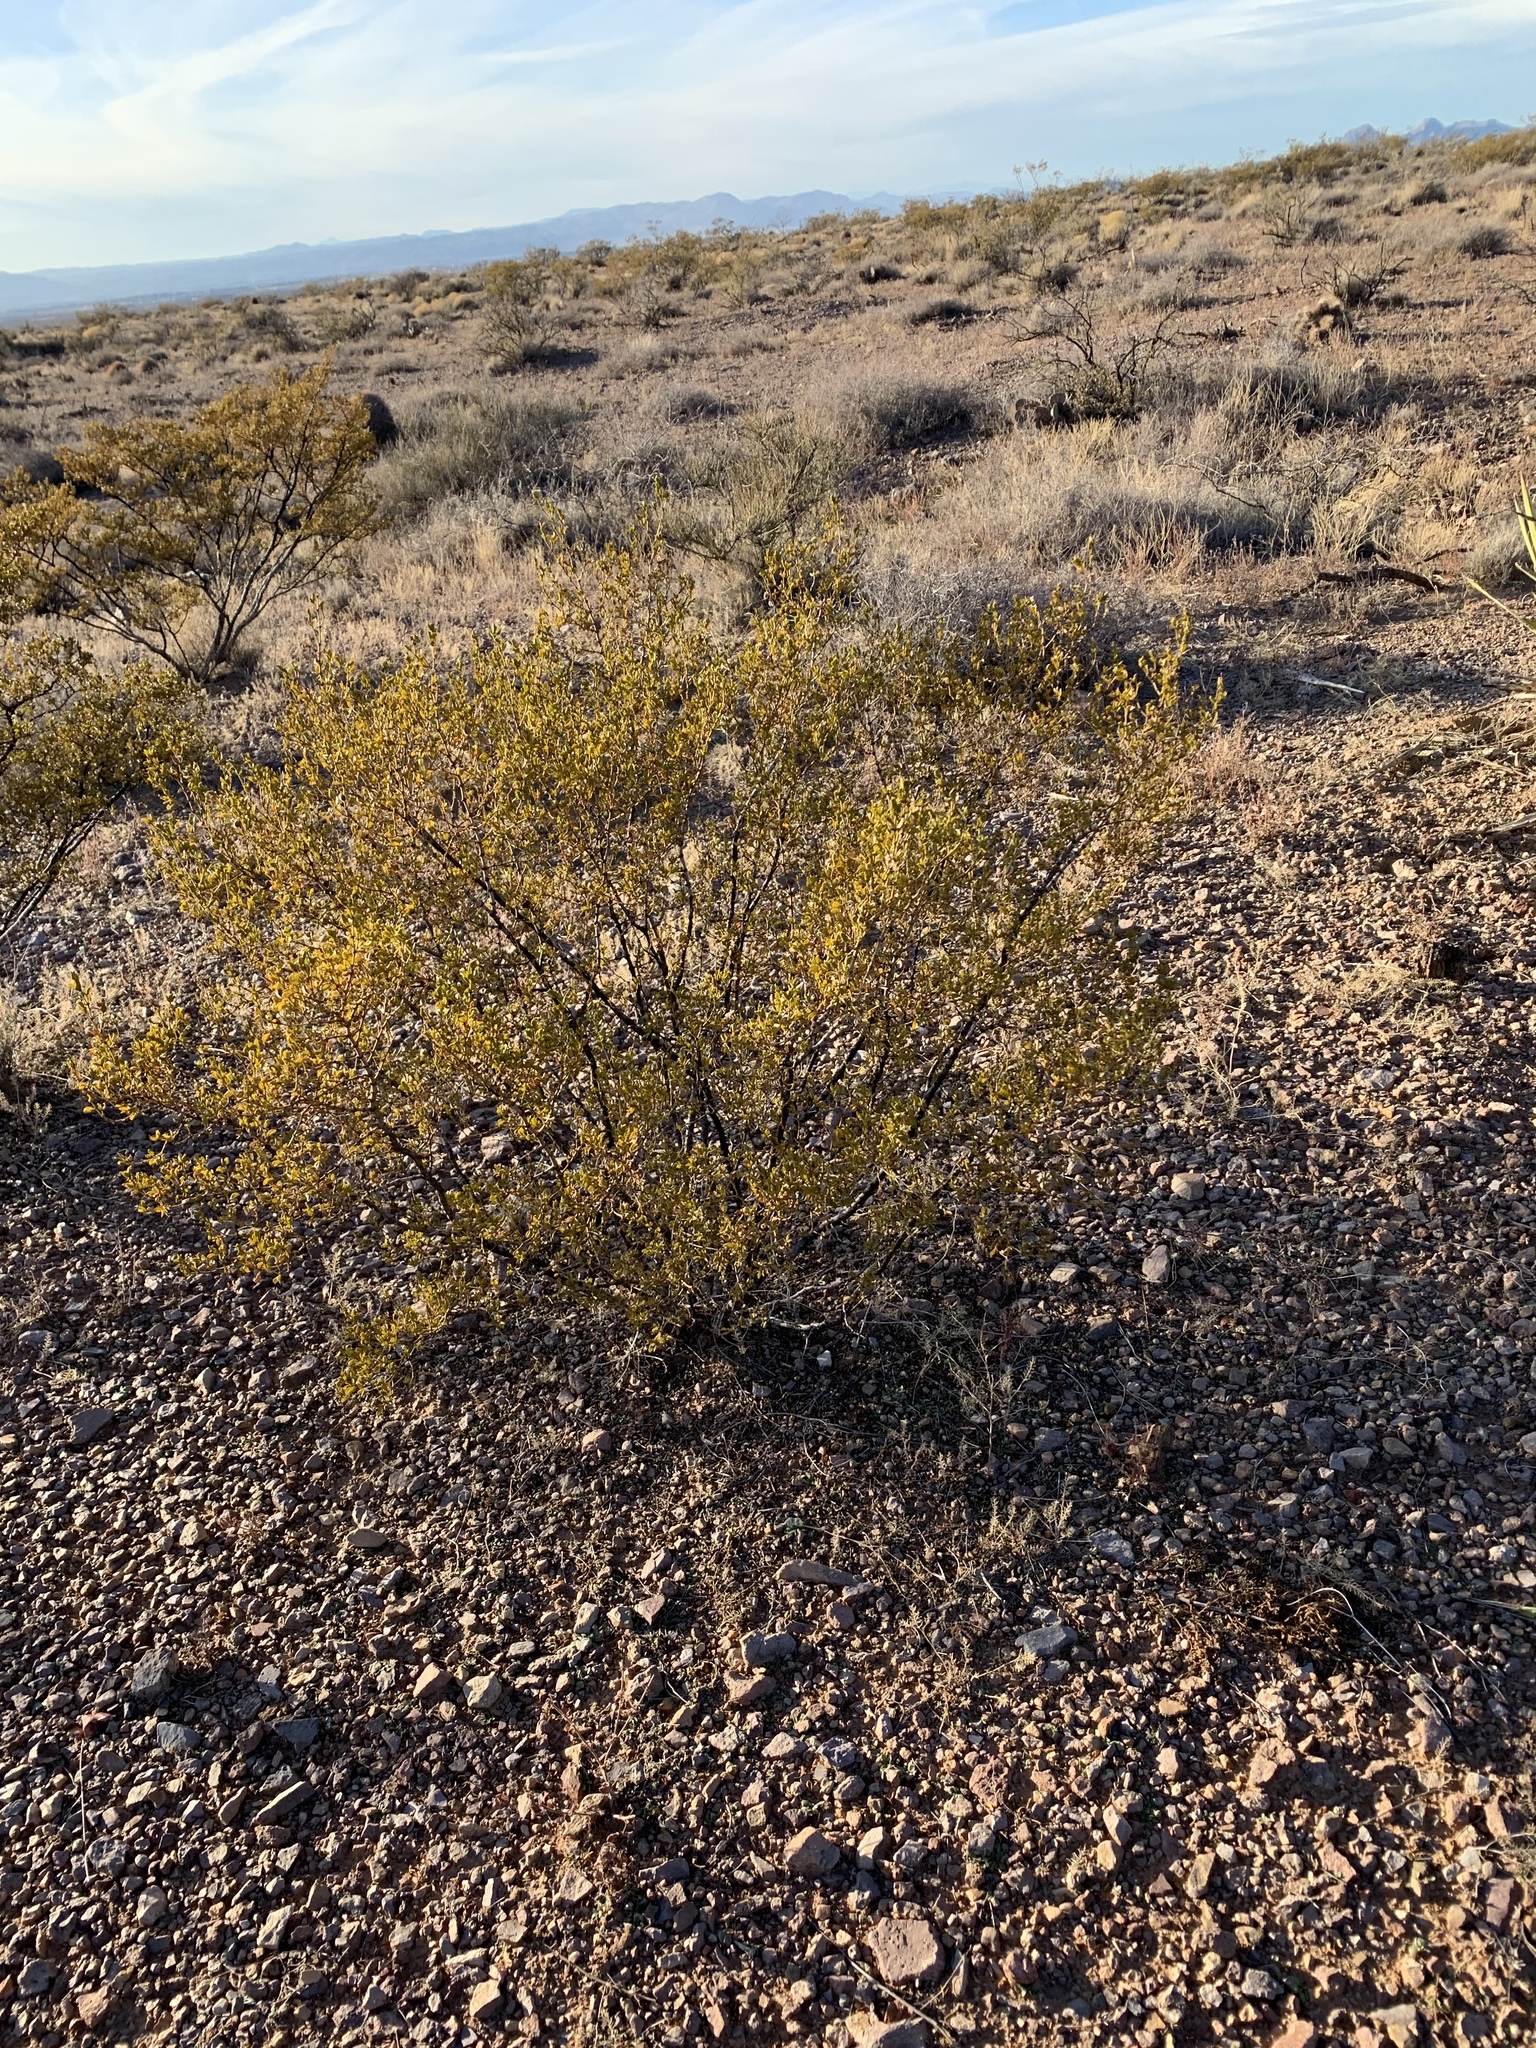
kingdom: Plantae
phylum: Tracheophyta
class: Magnoliopsida
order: Zygophyllales
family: Zygophyllaceae
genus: Larrea
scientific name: Larrea tridentata
